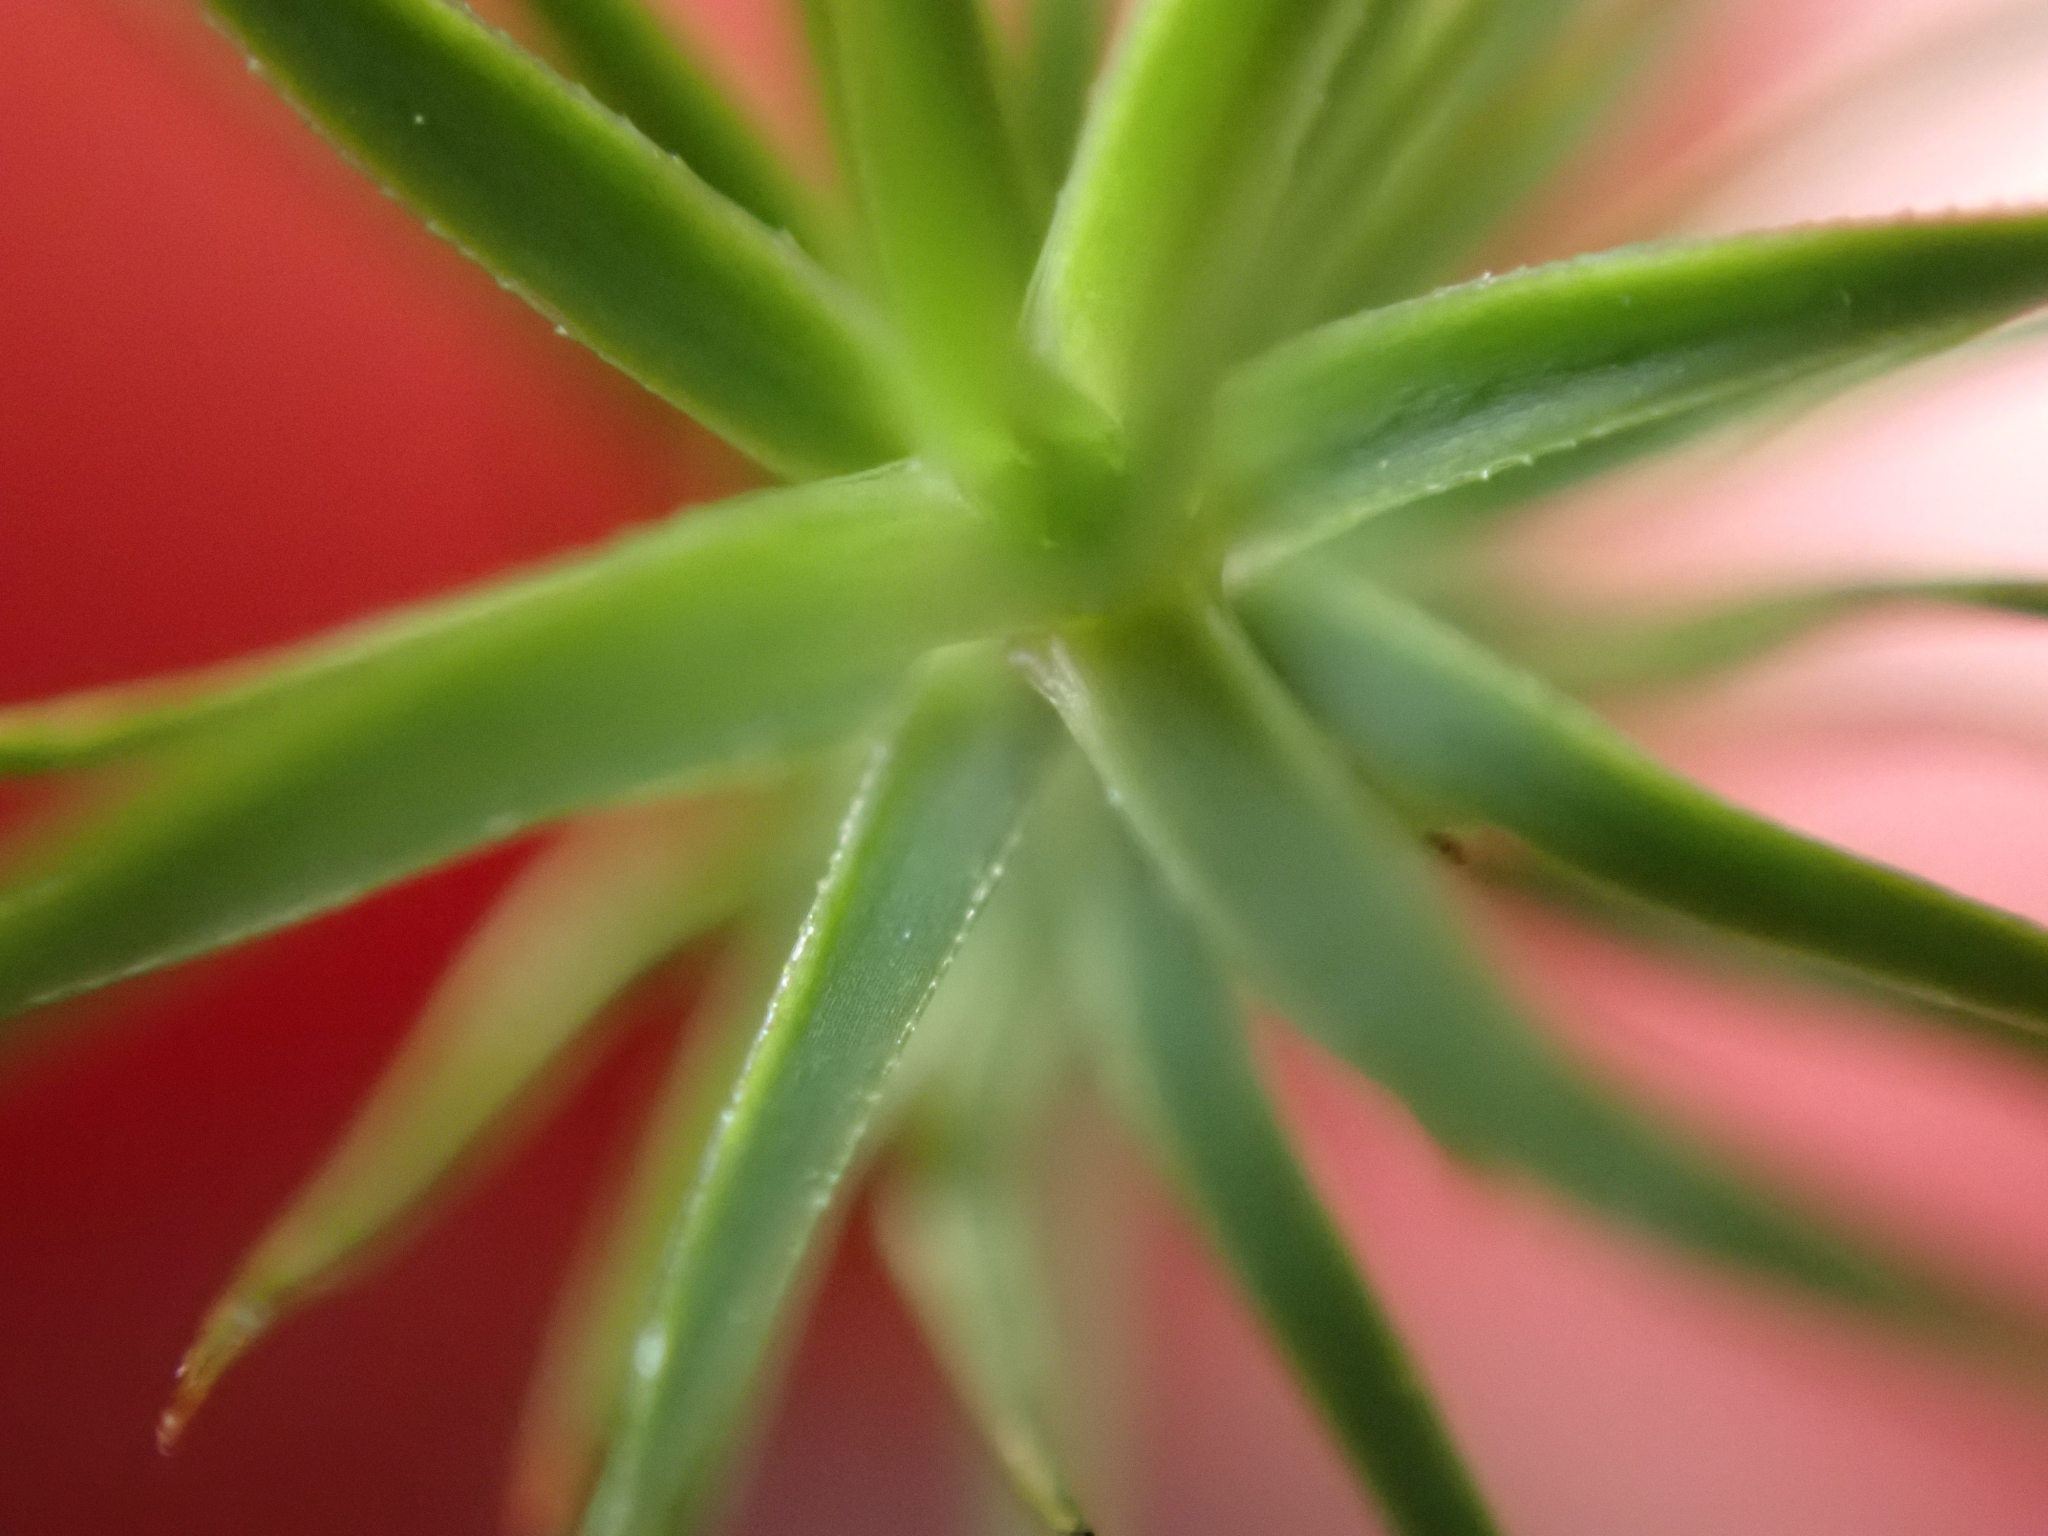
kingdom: Plantae
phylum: Bryophyta
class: Polytrichopsida
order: Polytrichales
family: Polytrichaceae
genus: Polytrichum
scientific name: Polytrichum commune
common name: Common haircap
